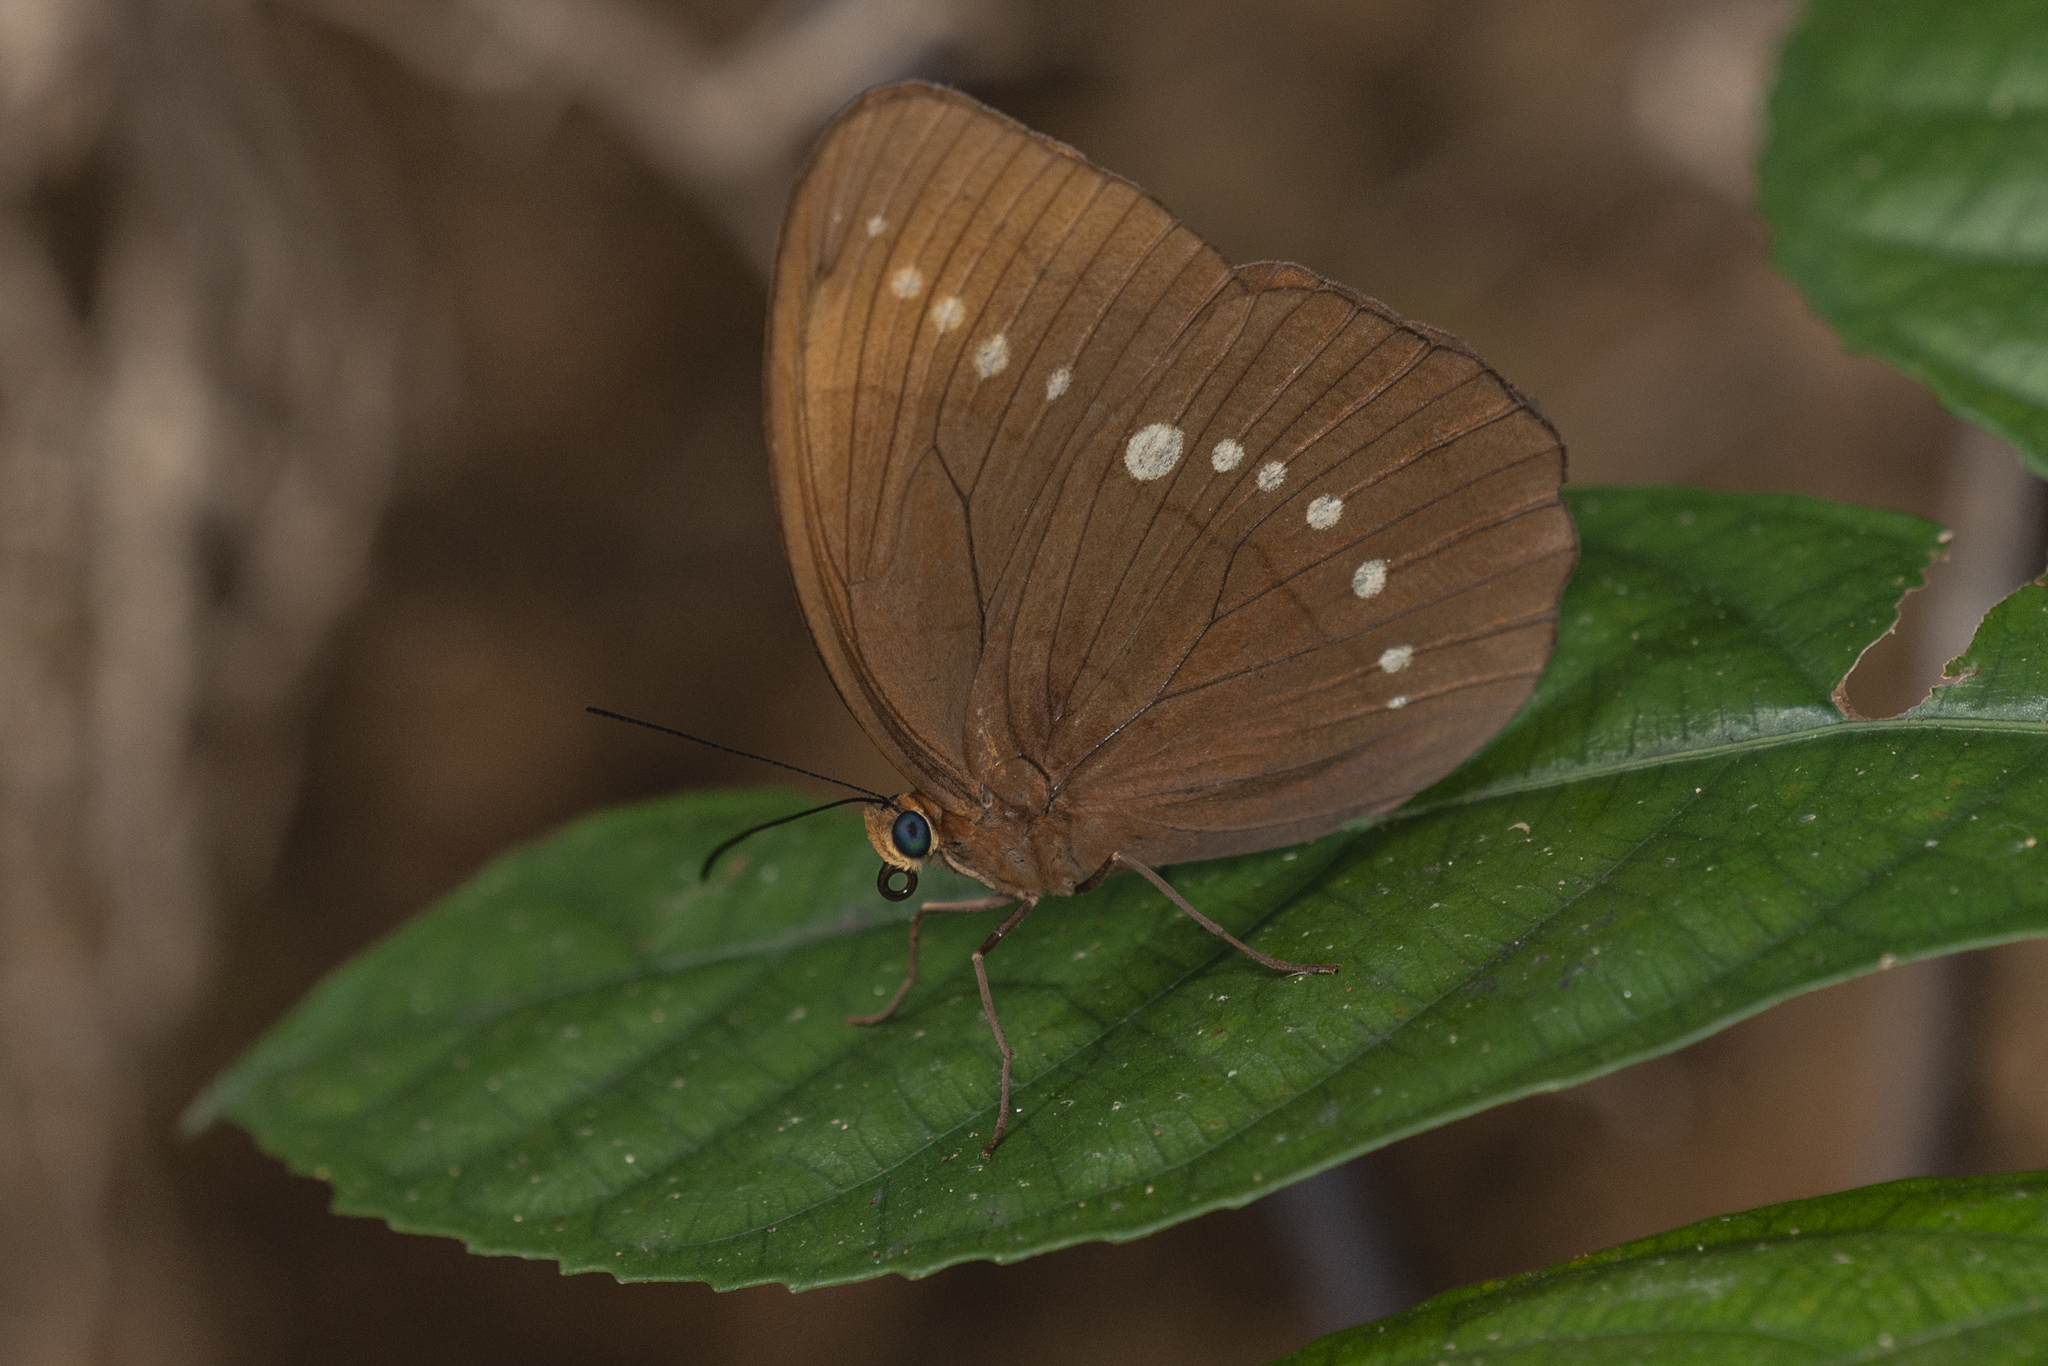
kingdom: Animalia
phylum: Arthropoda
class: Insecta
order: Lepidoptera
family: Nymphalidae
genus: Faunis
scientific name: Faunis eumeus
